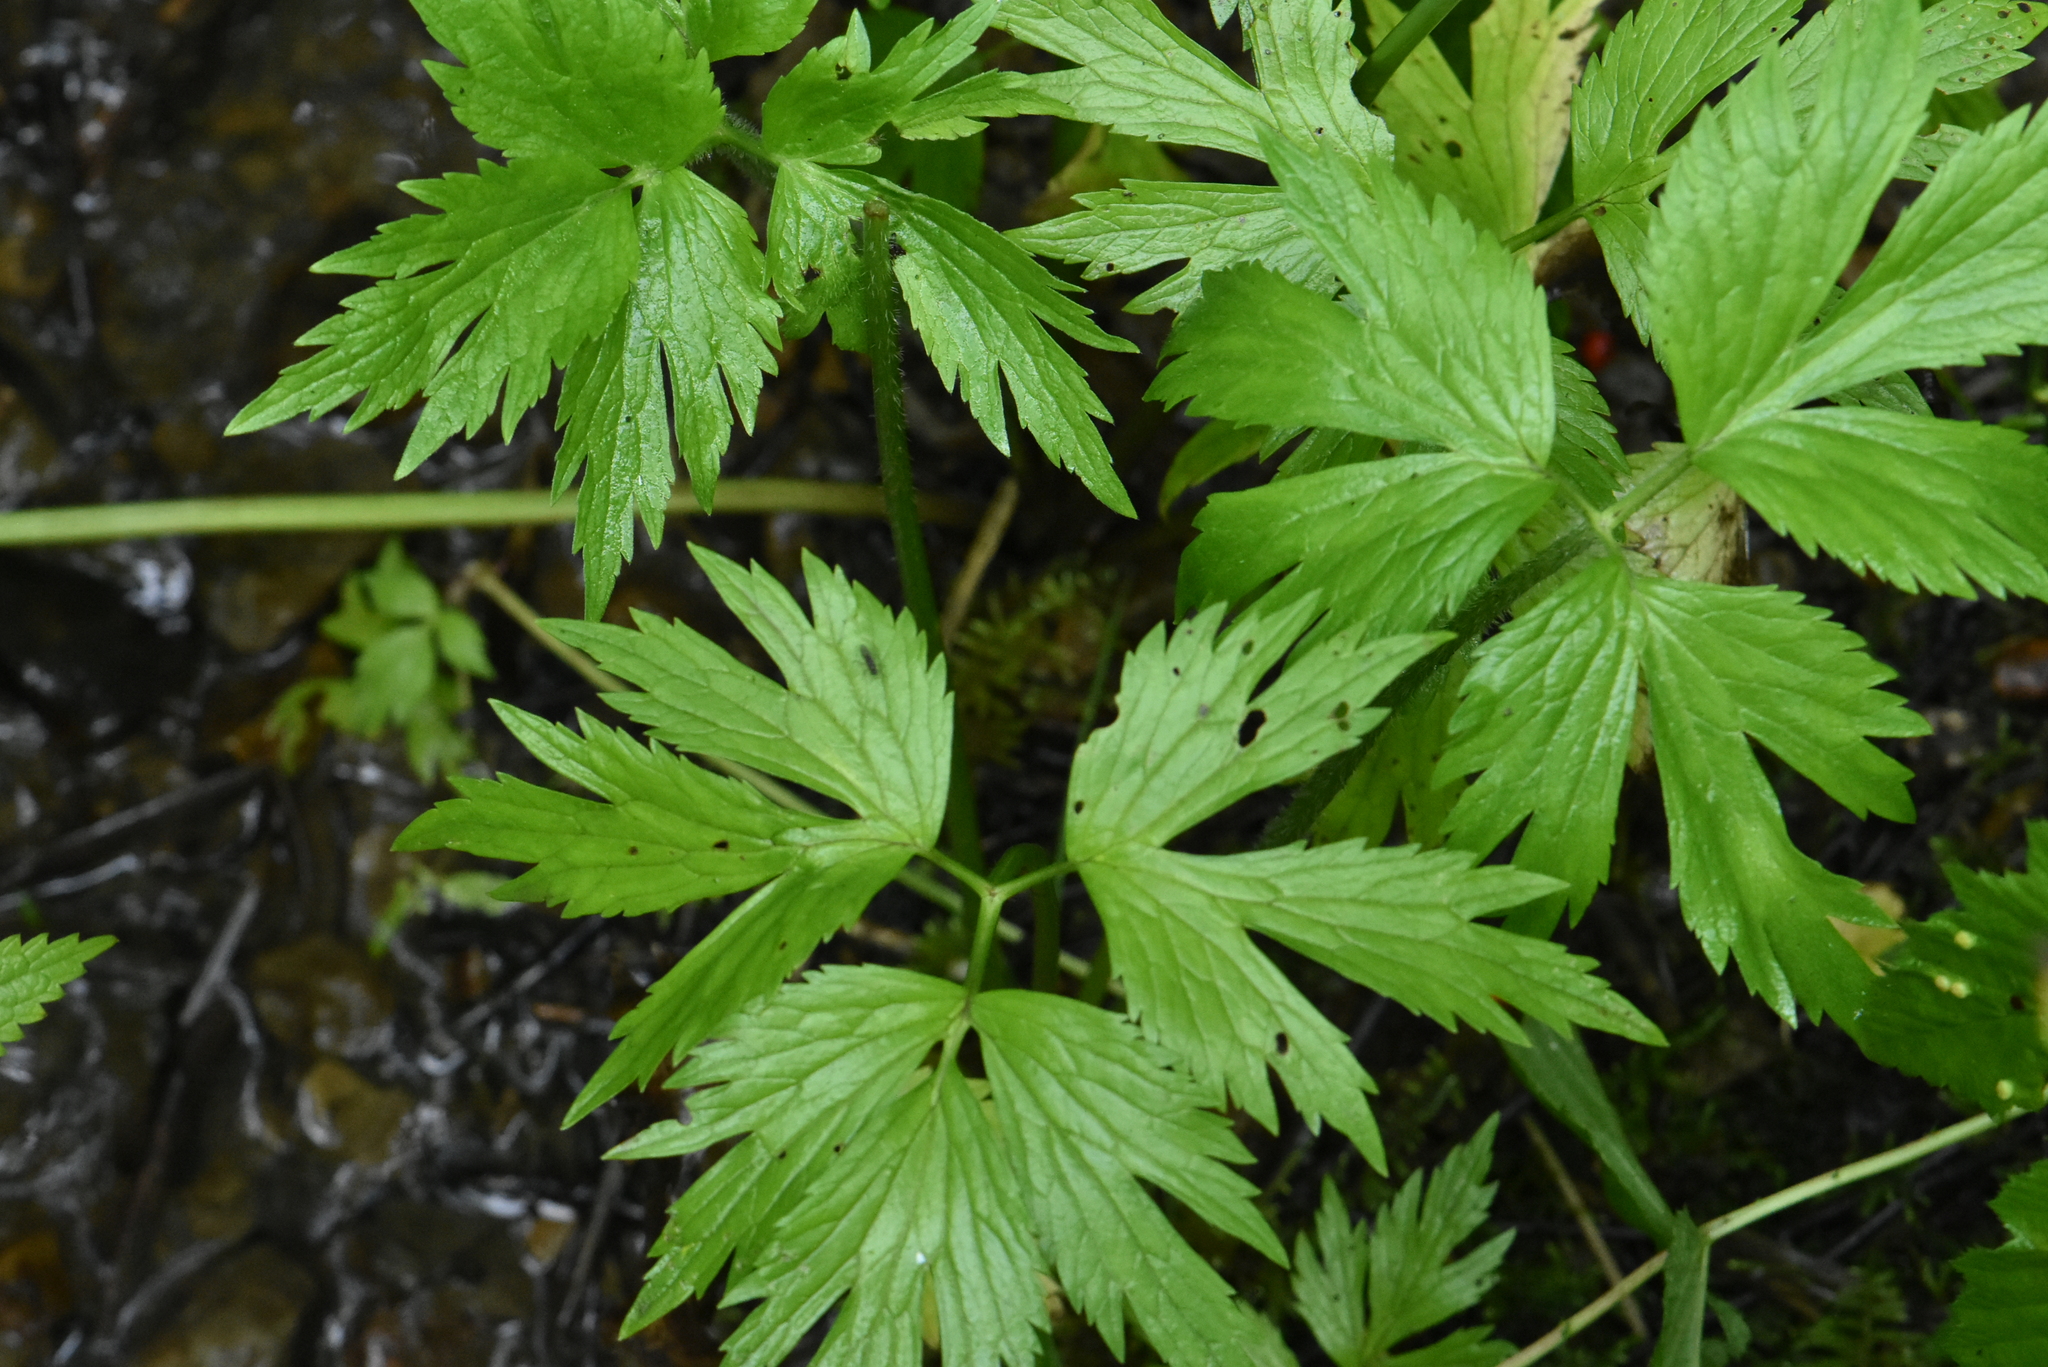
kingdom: Plantae
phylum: Tracheophyta
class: Magnoliopsida
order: Ranunculales
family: Ranunculaceae
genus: Ranunculus
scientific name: Ranunculus repens
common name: Creeping buttercup
